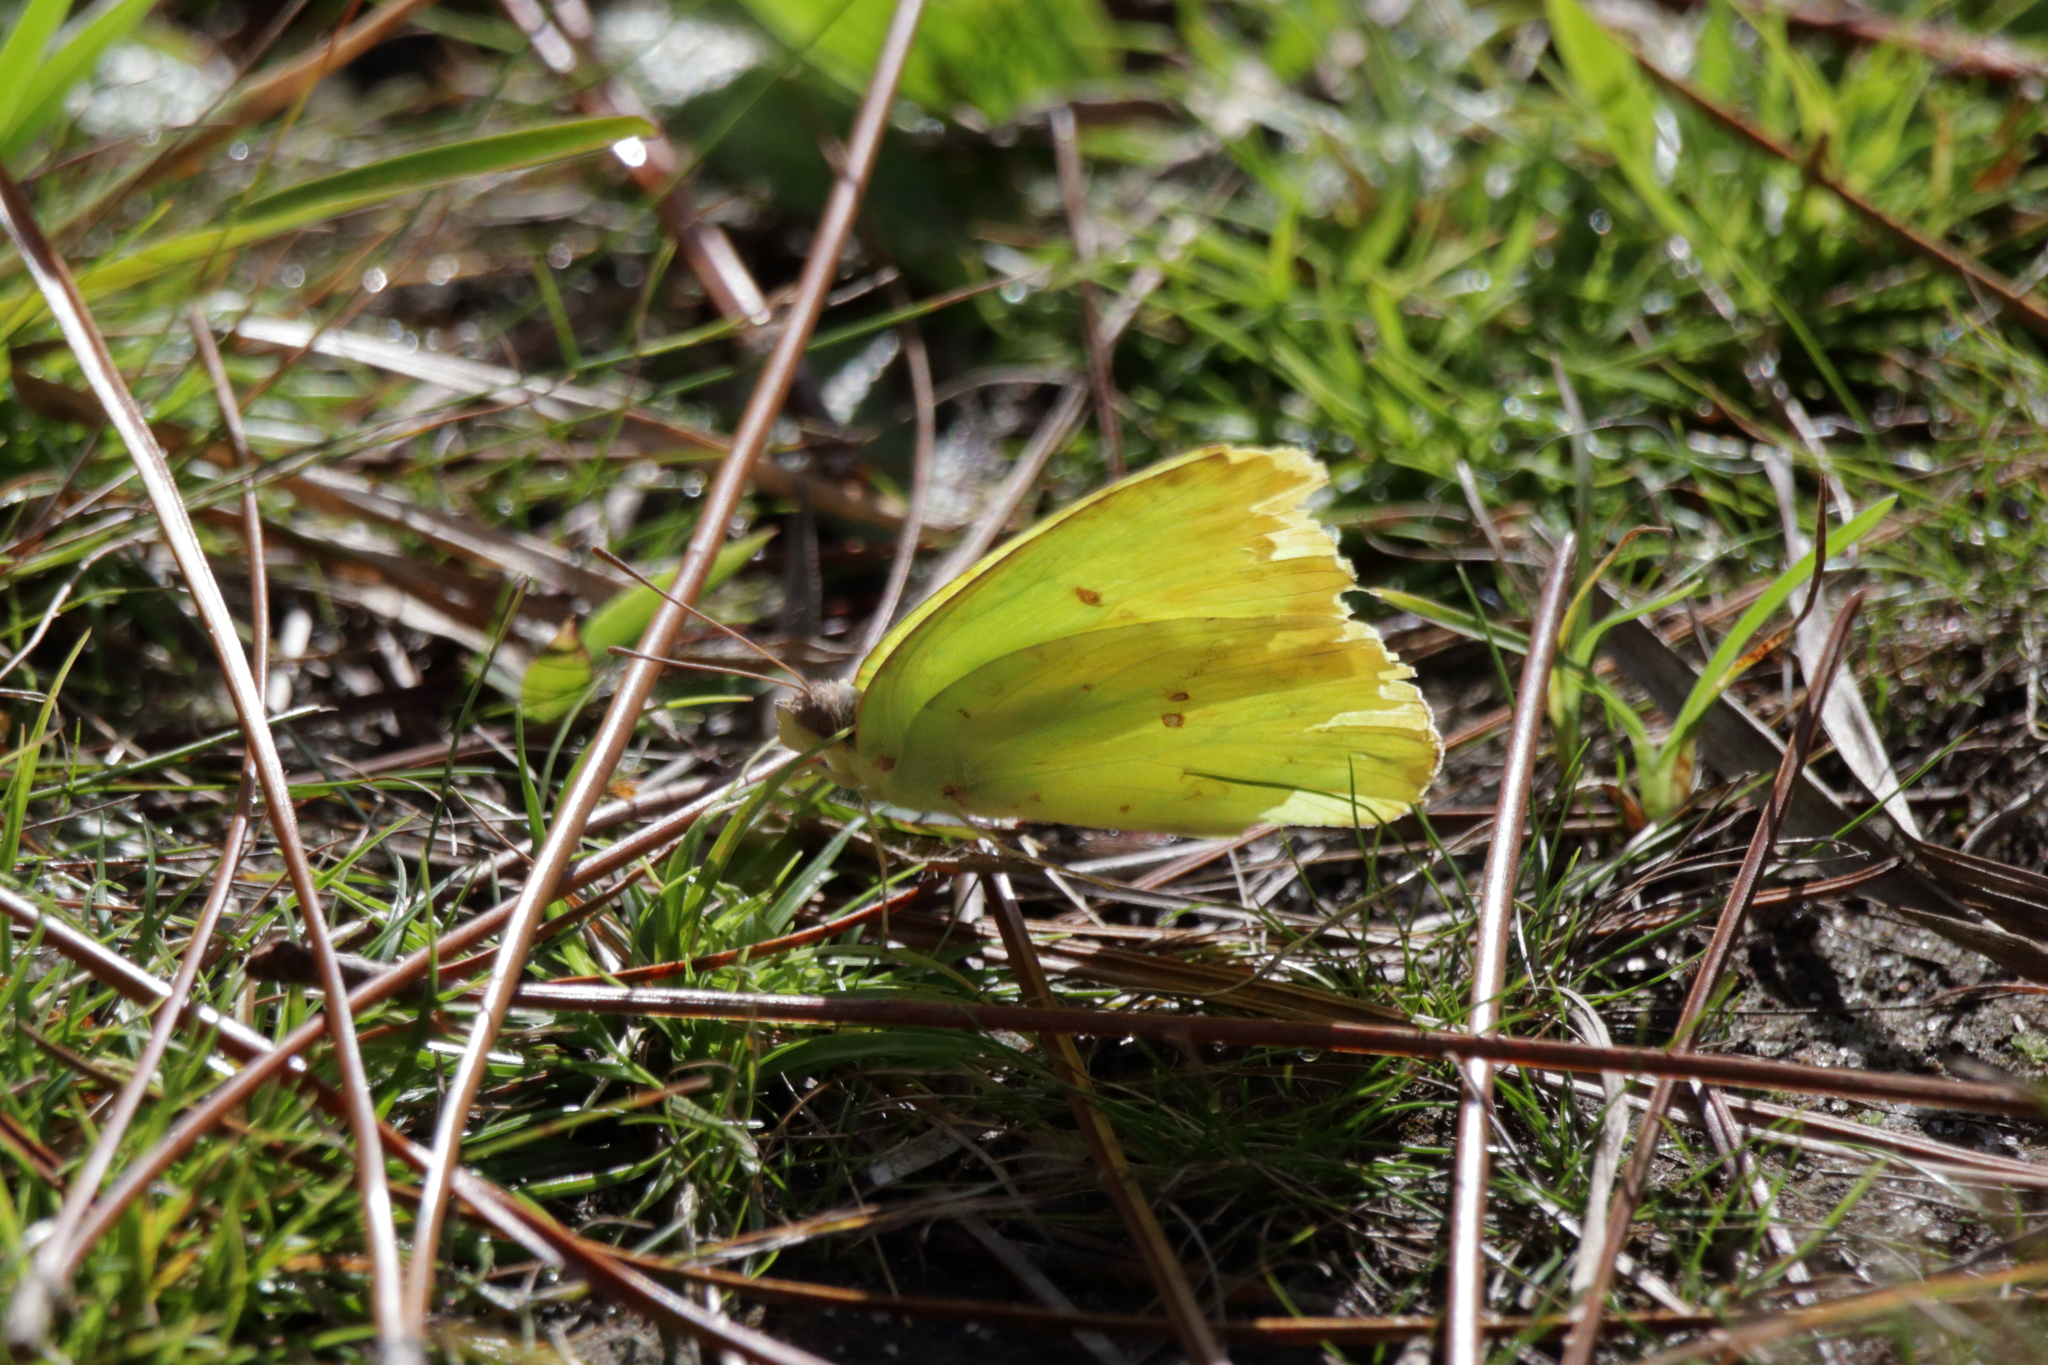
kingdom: Animalia
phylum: Arthropoda
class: Insecta
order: Lepidoptera
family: Pieridae
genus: Phoebis
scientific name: Phoebis sennae
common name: Cloudless sulphur
